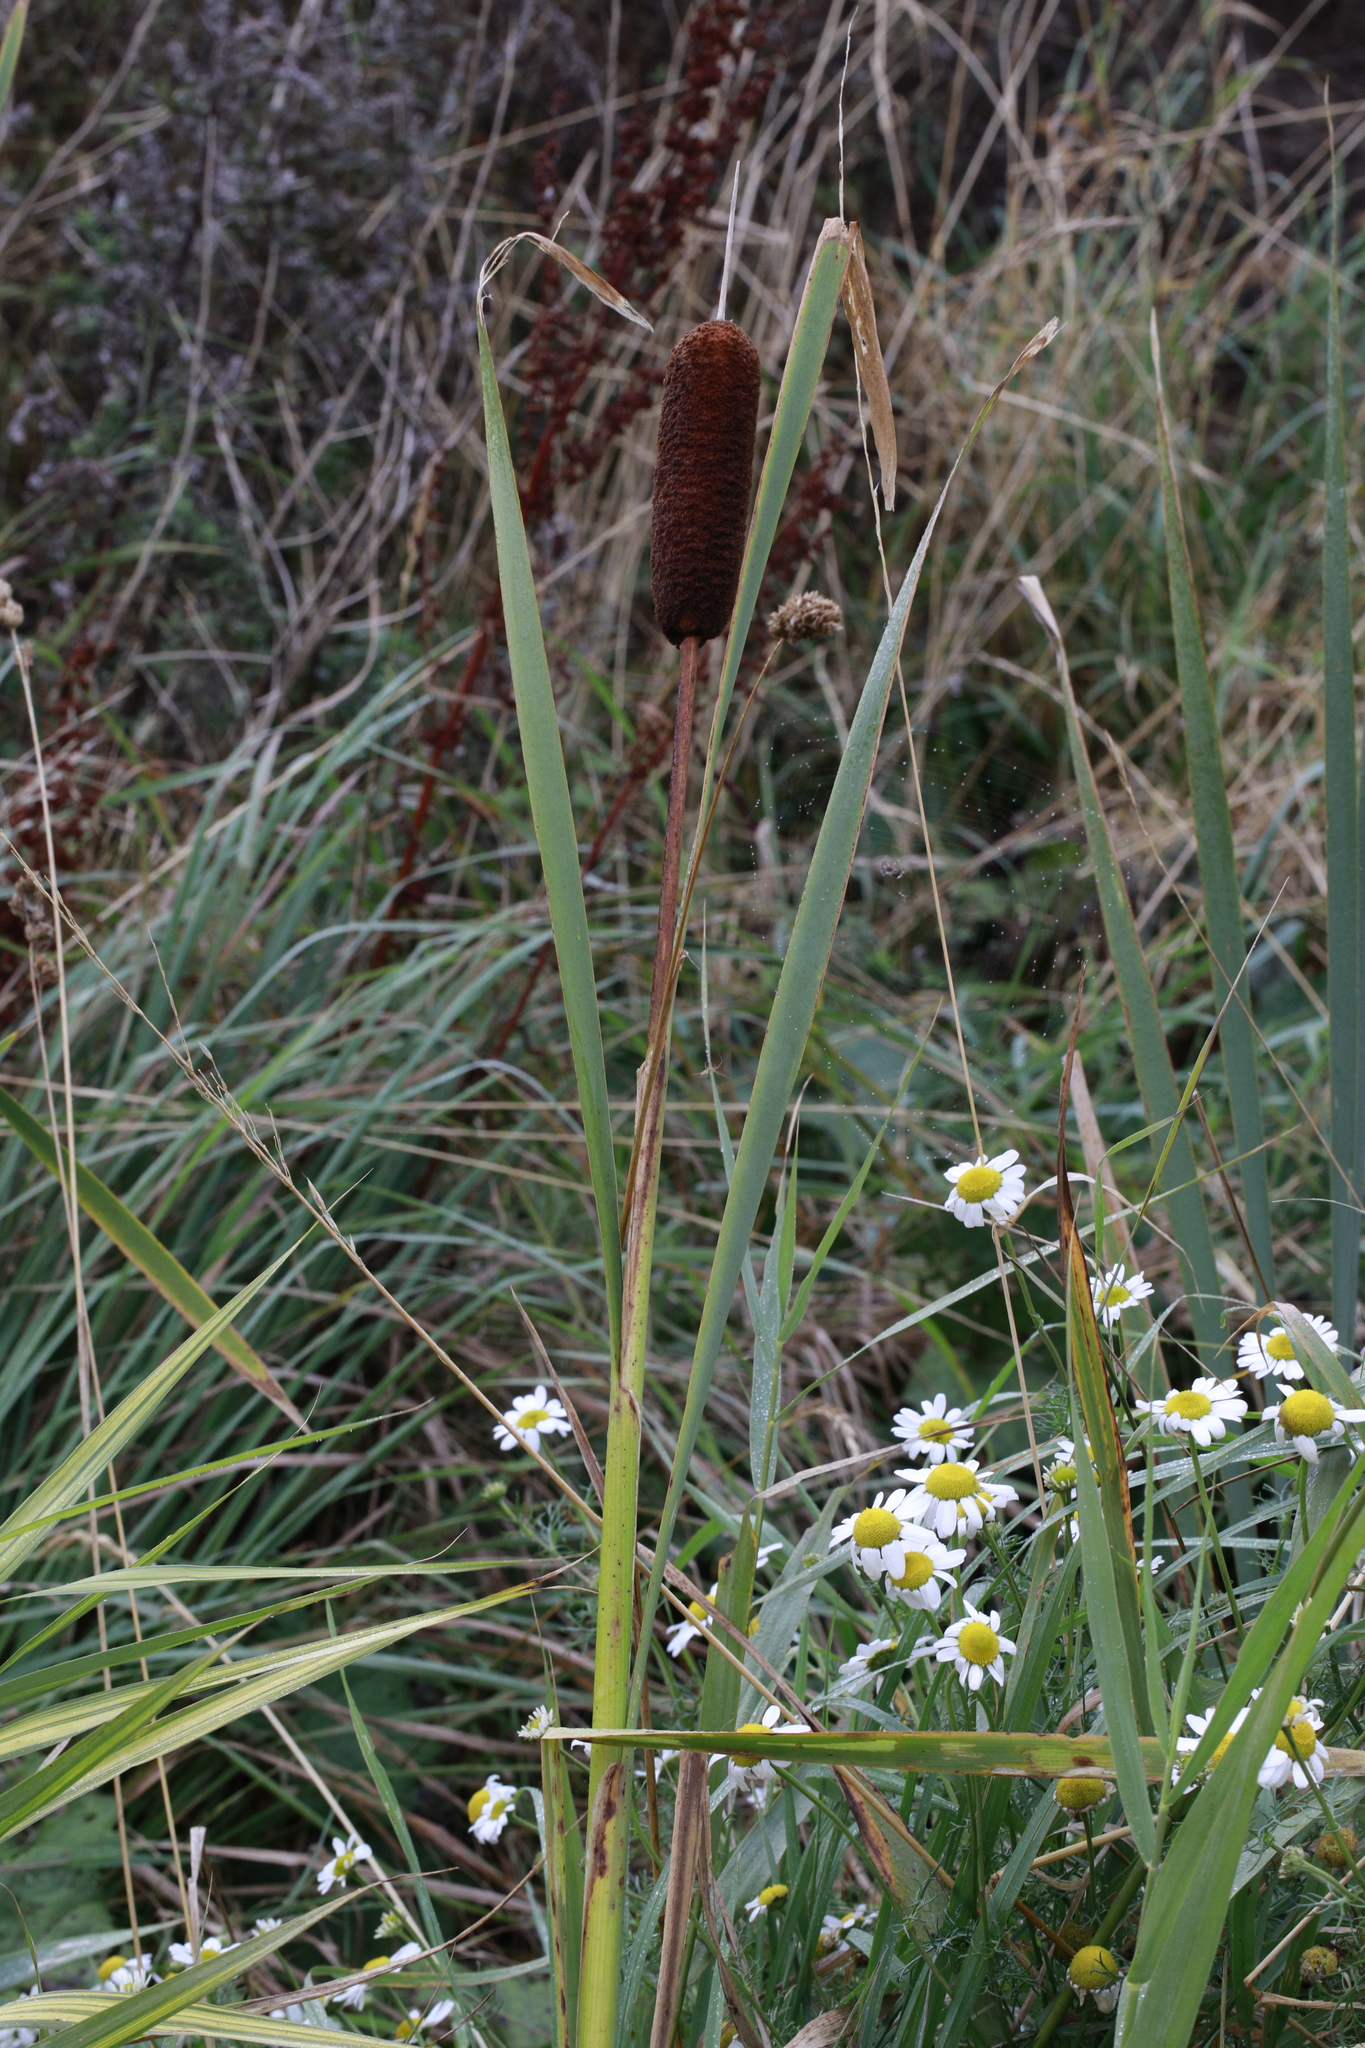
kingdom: Plantae
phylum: Tracheophyta
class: Liliopsida
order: Poales
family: Typhaceae
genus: Typha
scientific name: Typha latifolia
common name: Broadleaf cattail
